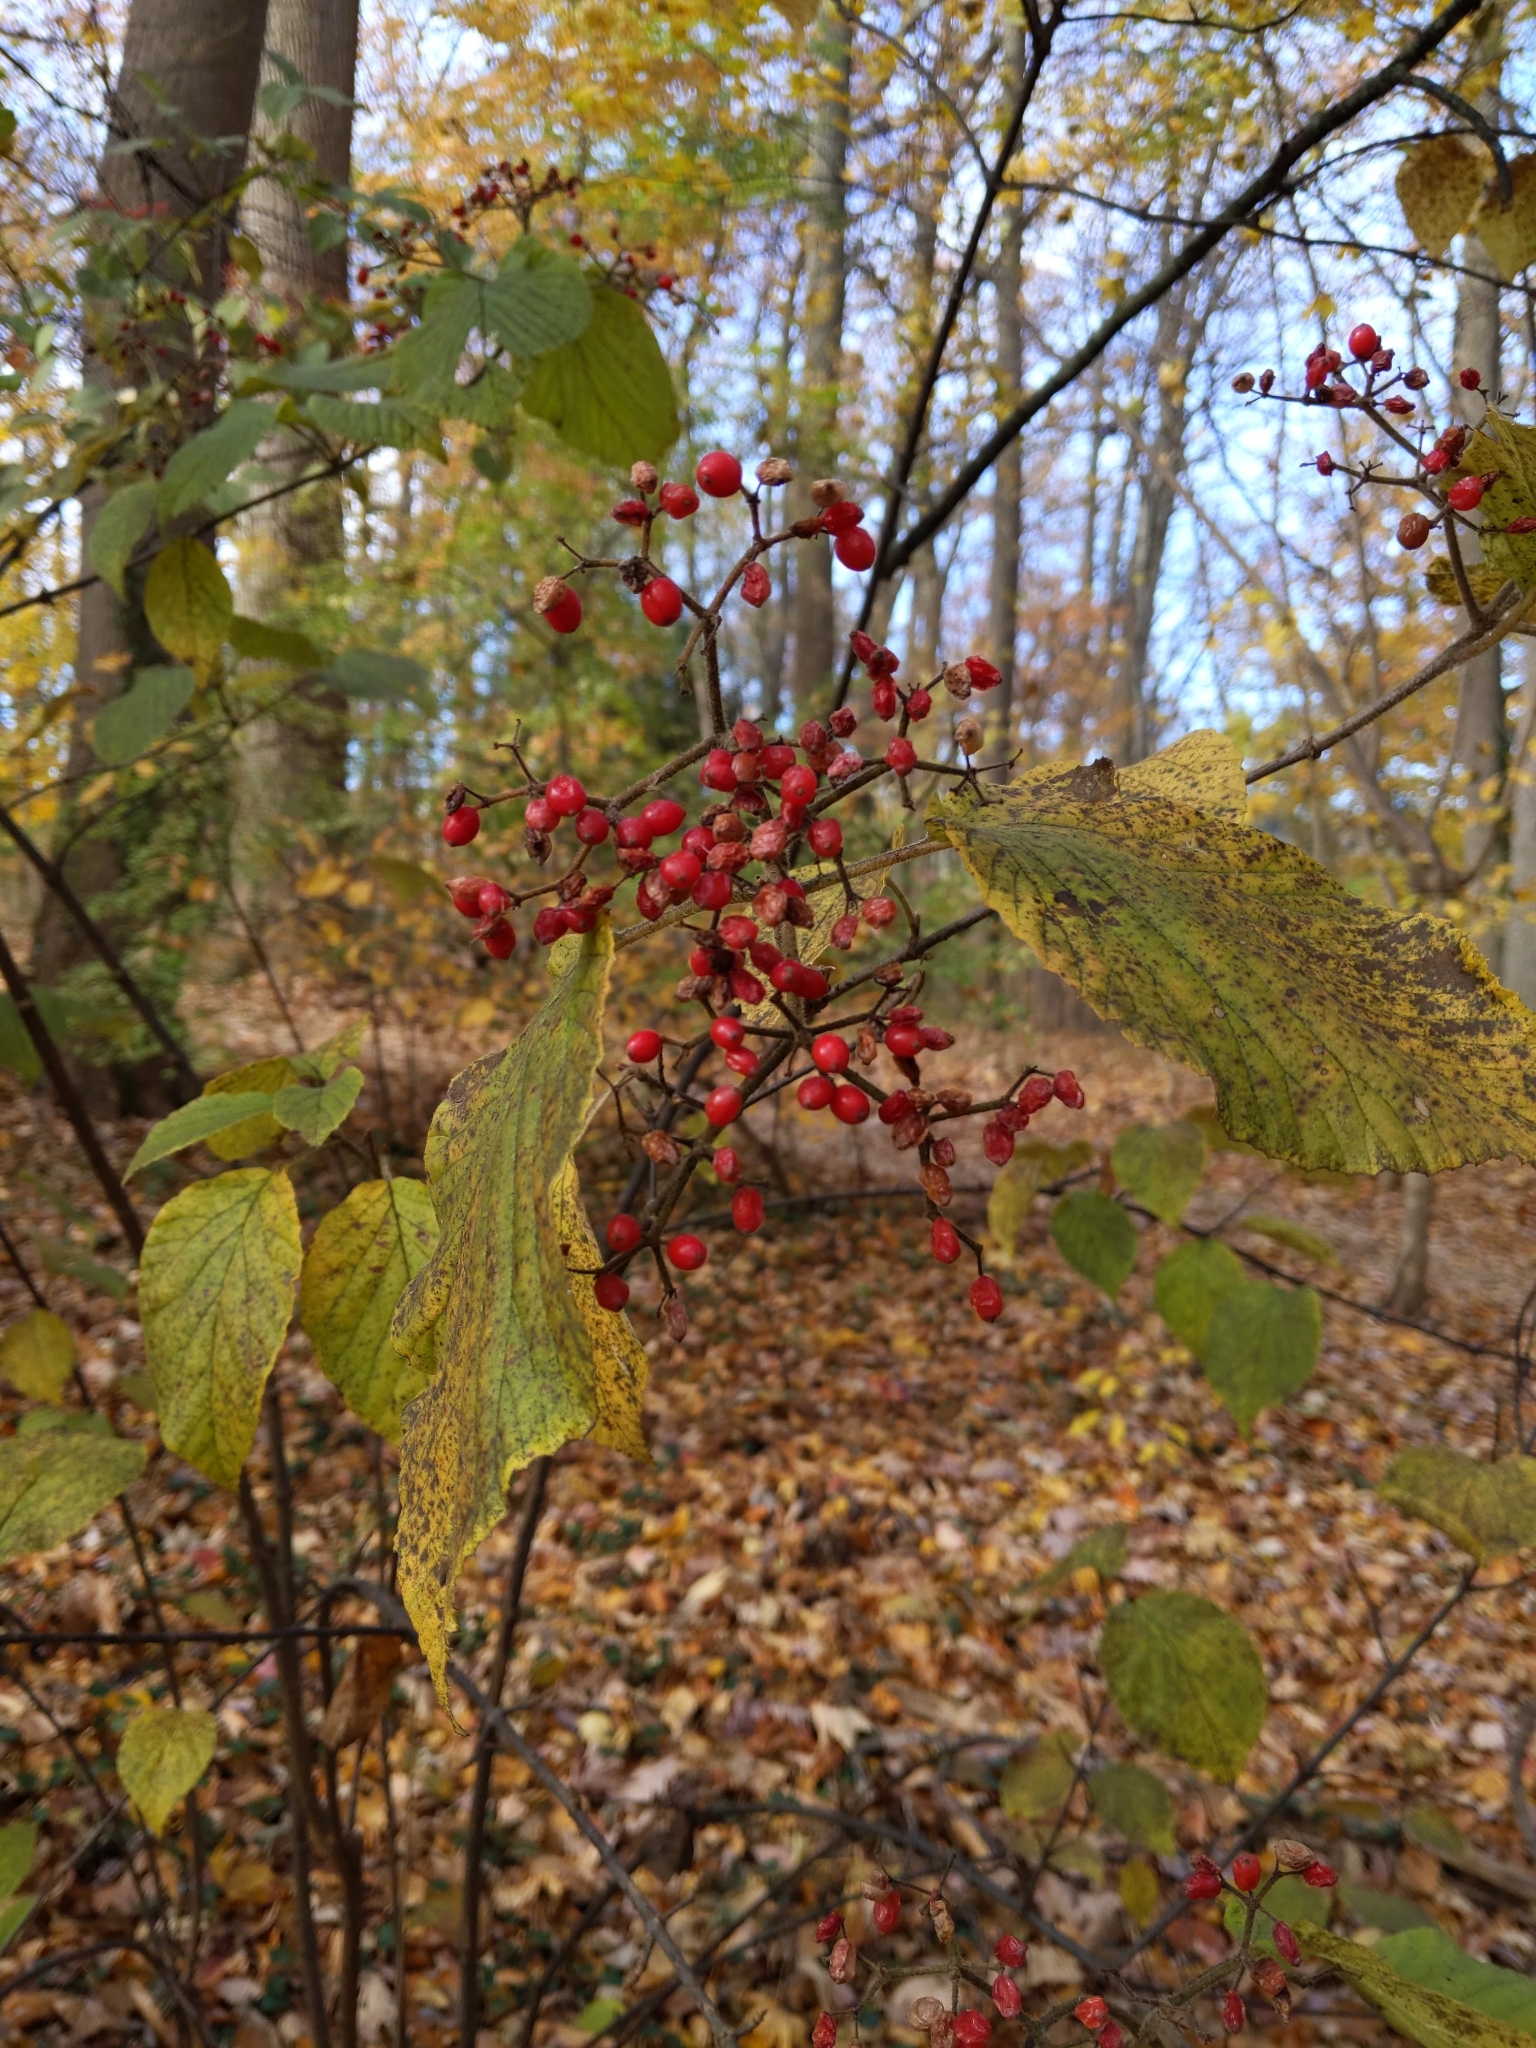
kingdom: Plantae
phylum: Tracheophyta
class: Magnoliopsida
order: Dipsacales
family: Viburnaceae
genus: Viburnum
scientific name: Viburnum dilatatum
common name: Linden arrowwood
